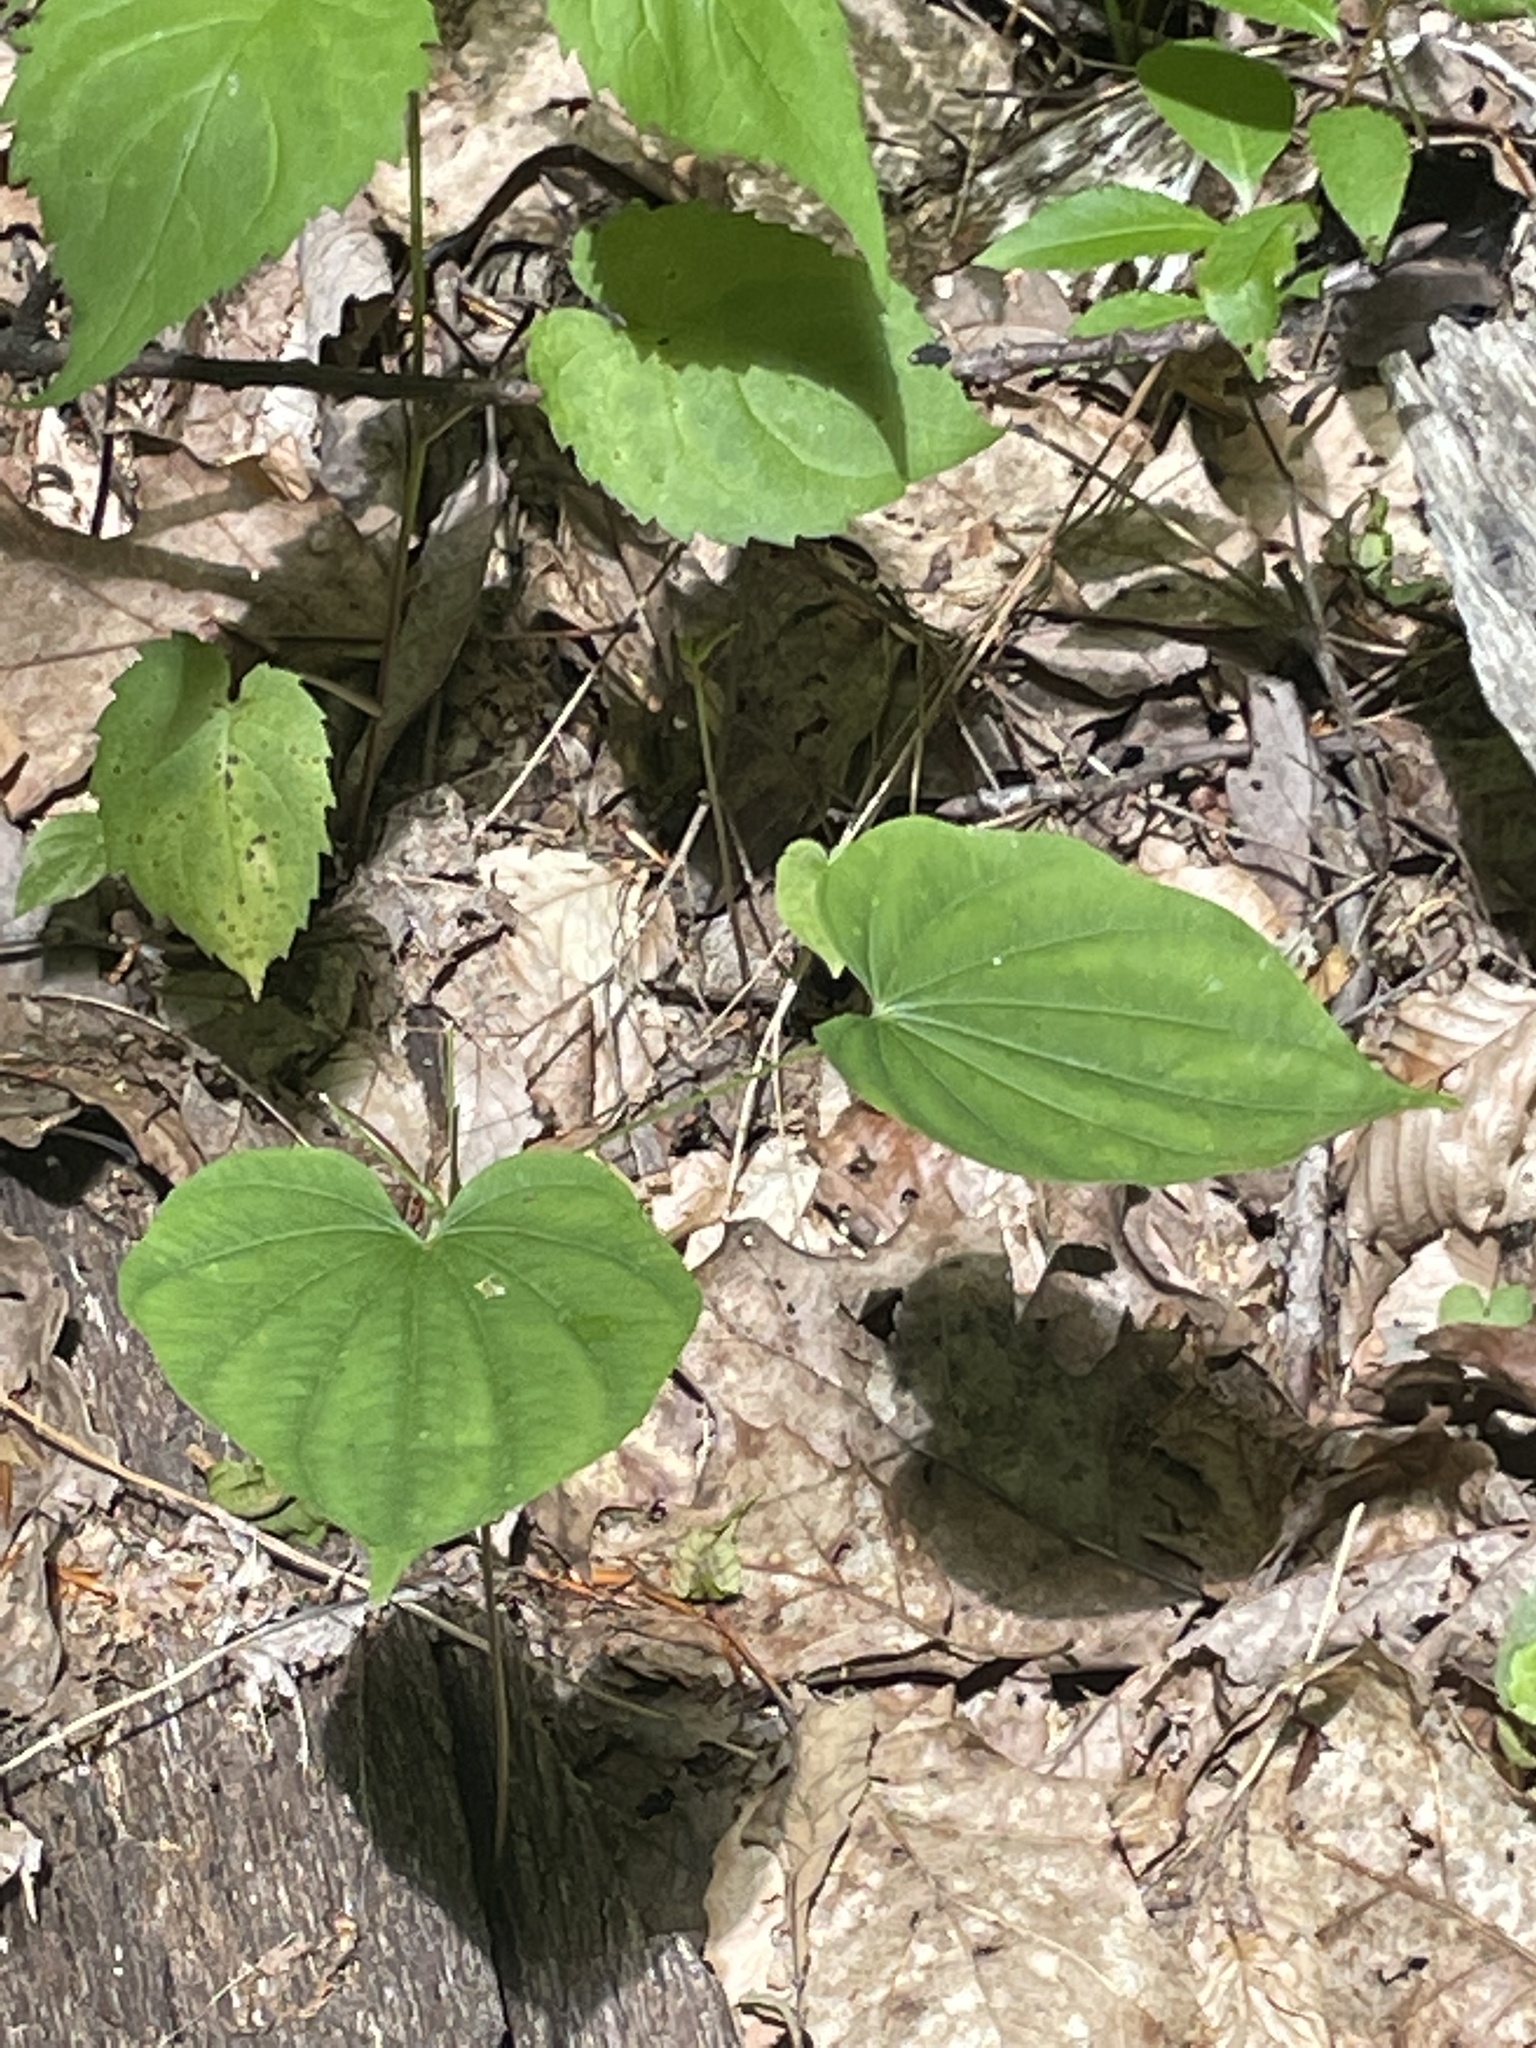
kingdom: Plantae
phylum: Tracheophyta
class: Liliopsida
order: Dioscoreales
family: Dioscoreaceae
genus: Dioscorea
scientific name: Dioscorea villosa
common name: Wild yam
